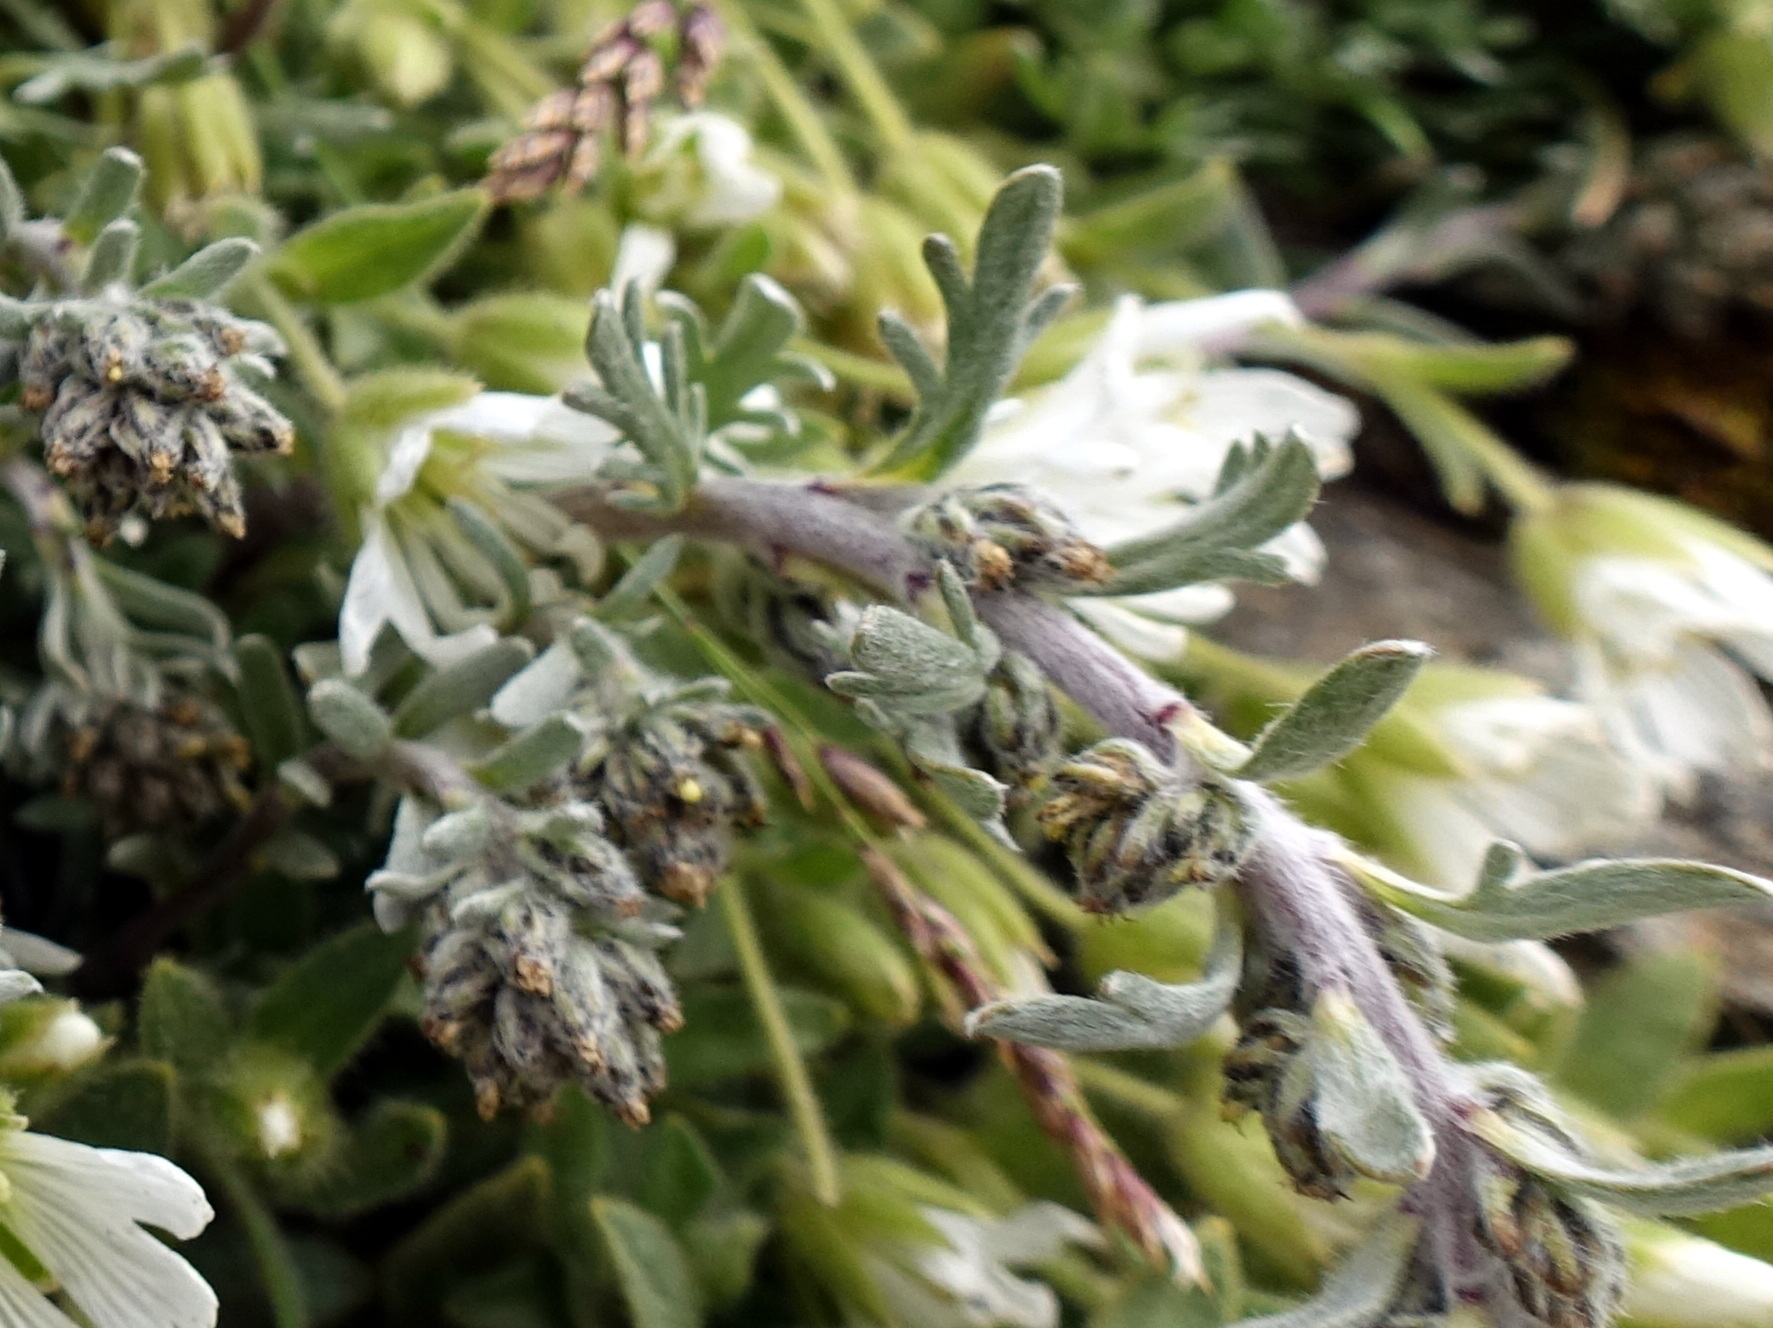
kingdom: Plantae
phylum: Tracheophyta
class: Magnoliopsida
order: Asterales
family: Asteraceae
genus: Artemisia
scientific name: Artemisia genipi
